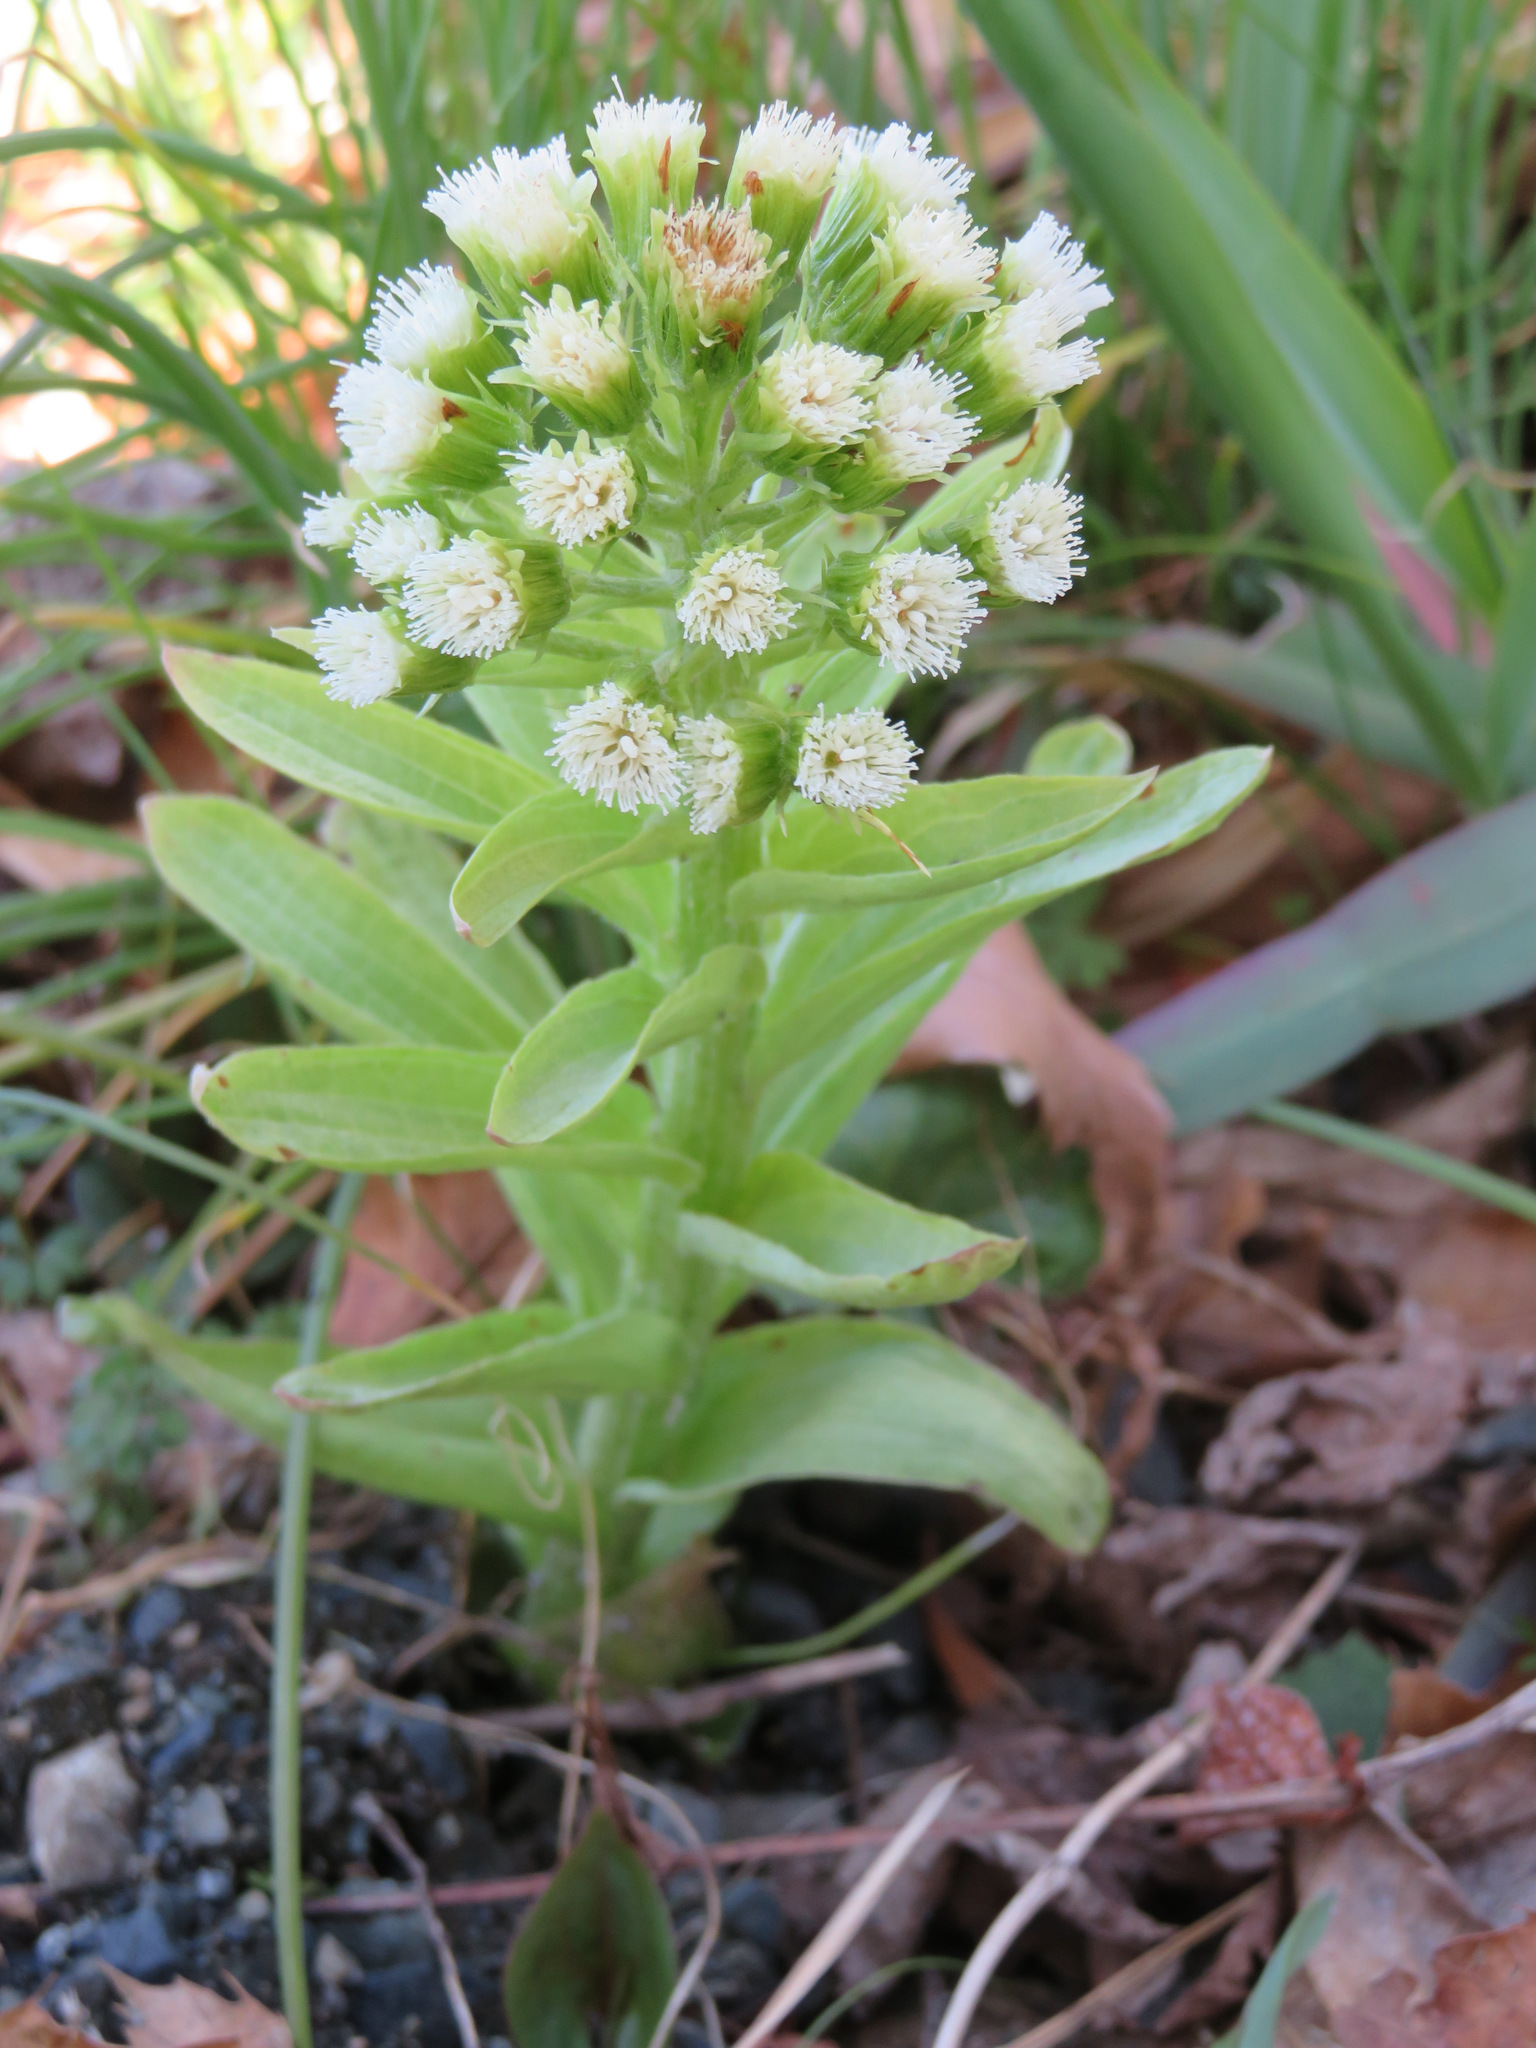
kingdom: Plantae
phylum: Tracheophyta
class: Magnoliopsida
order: Asterales
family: Asteraceae
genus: Petasites
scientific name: Petasites japonicus
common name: Giant butterbur
